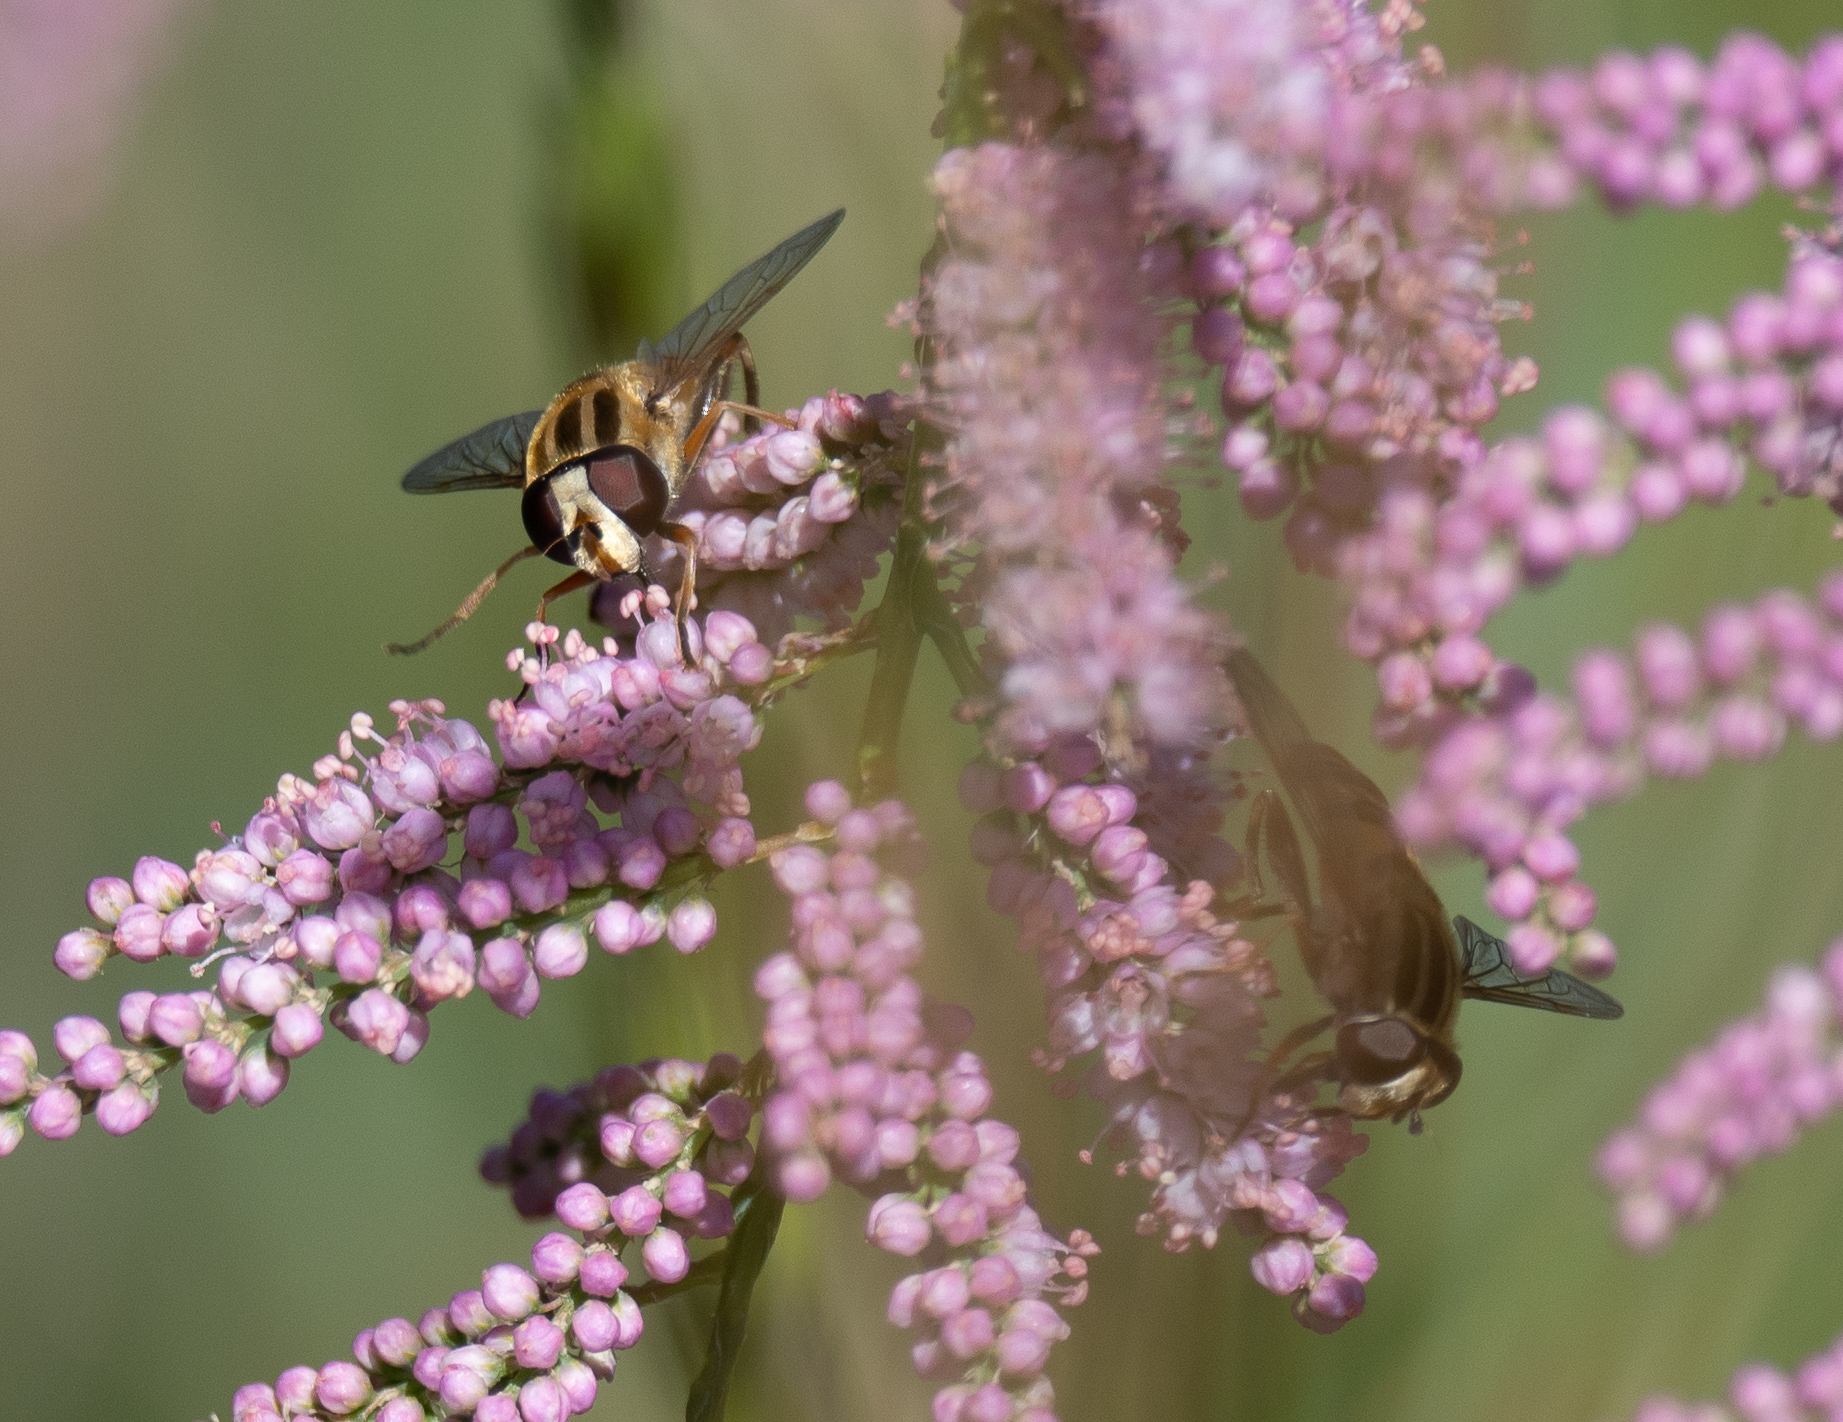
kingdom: Animalia
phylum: Arthropoda
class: Insecta
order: Diptera
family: Syrphidae
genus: Helophilus
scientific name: Helophilus latifrons
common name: Broad-headed marsh fly
